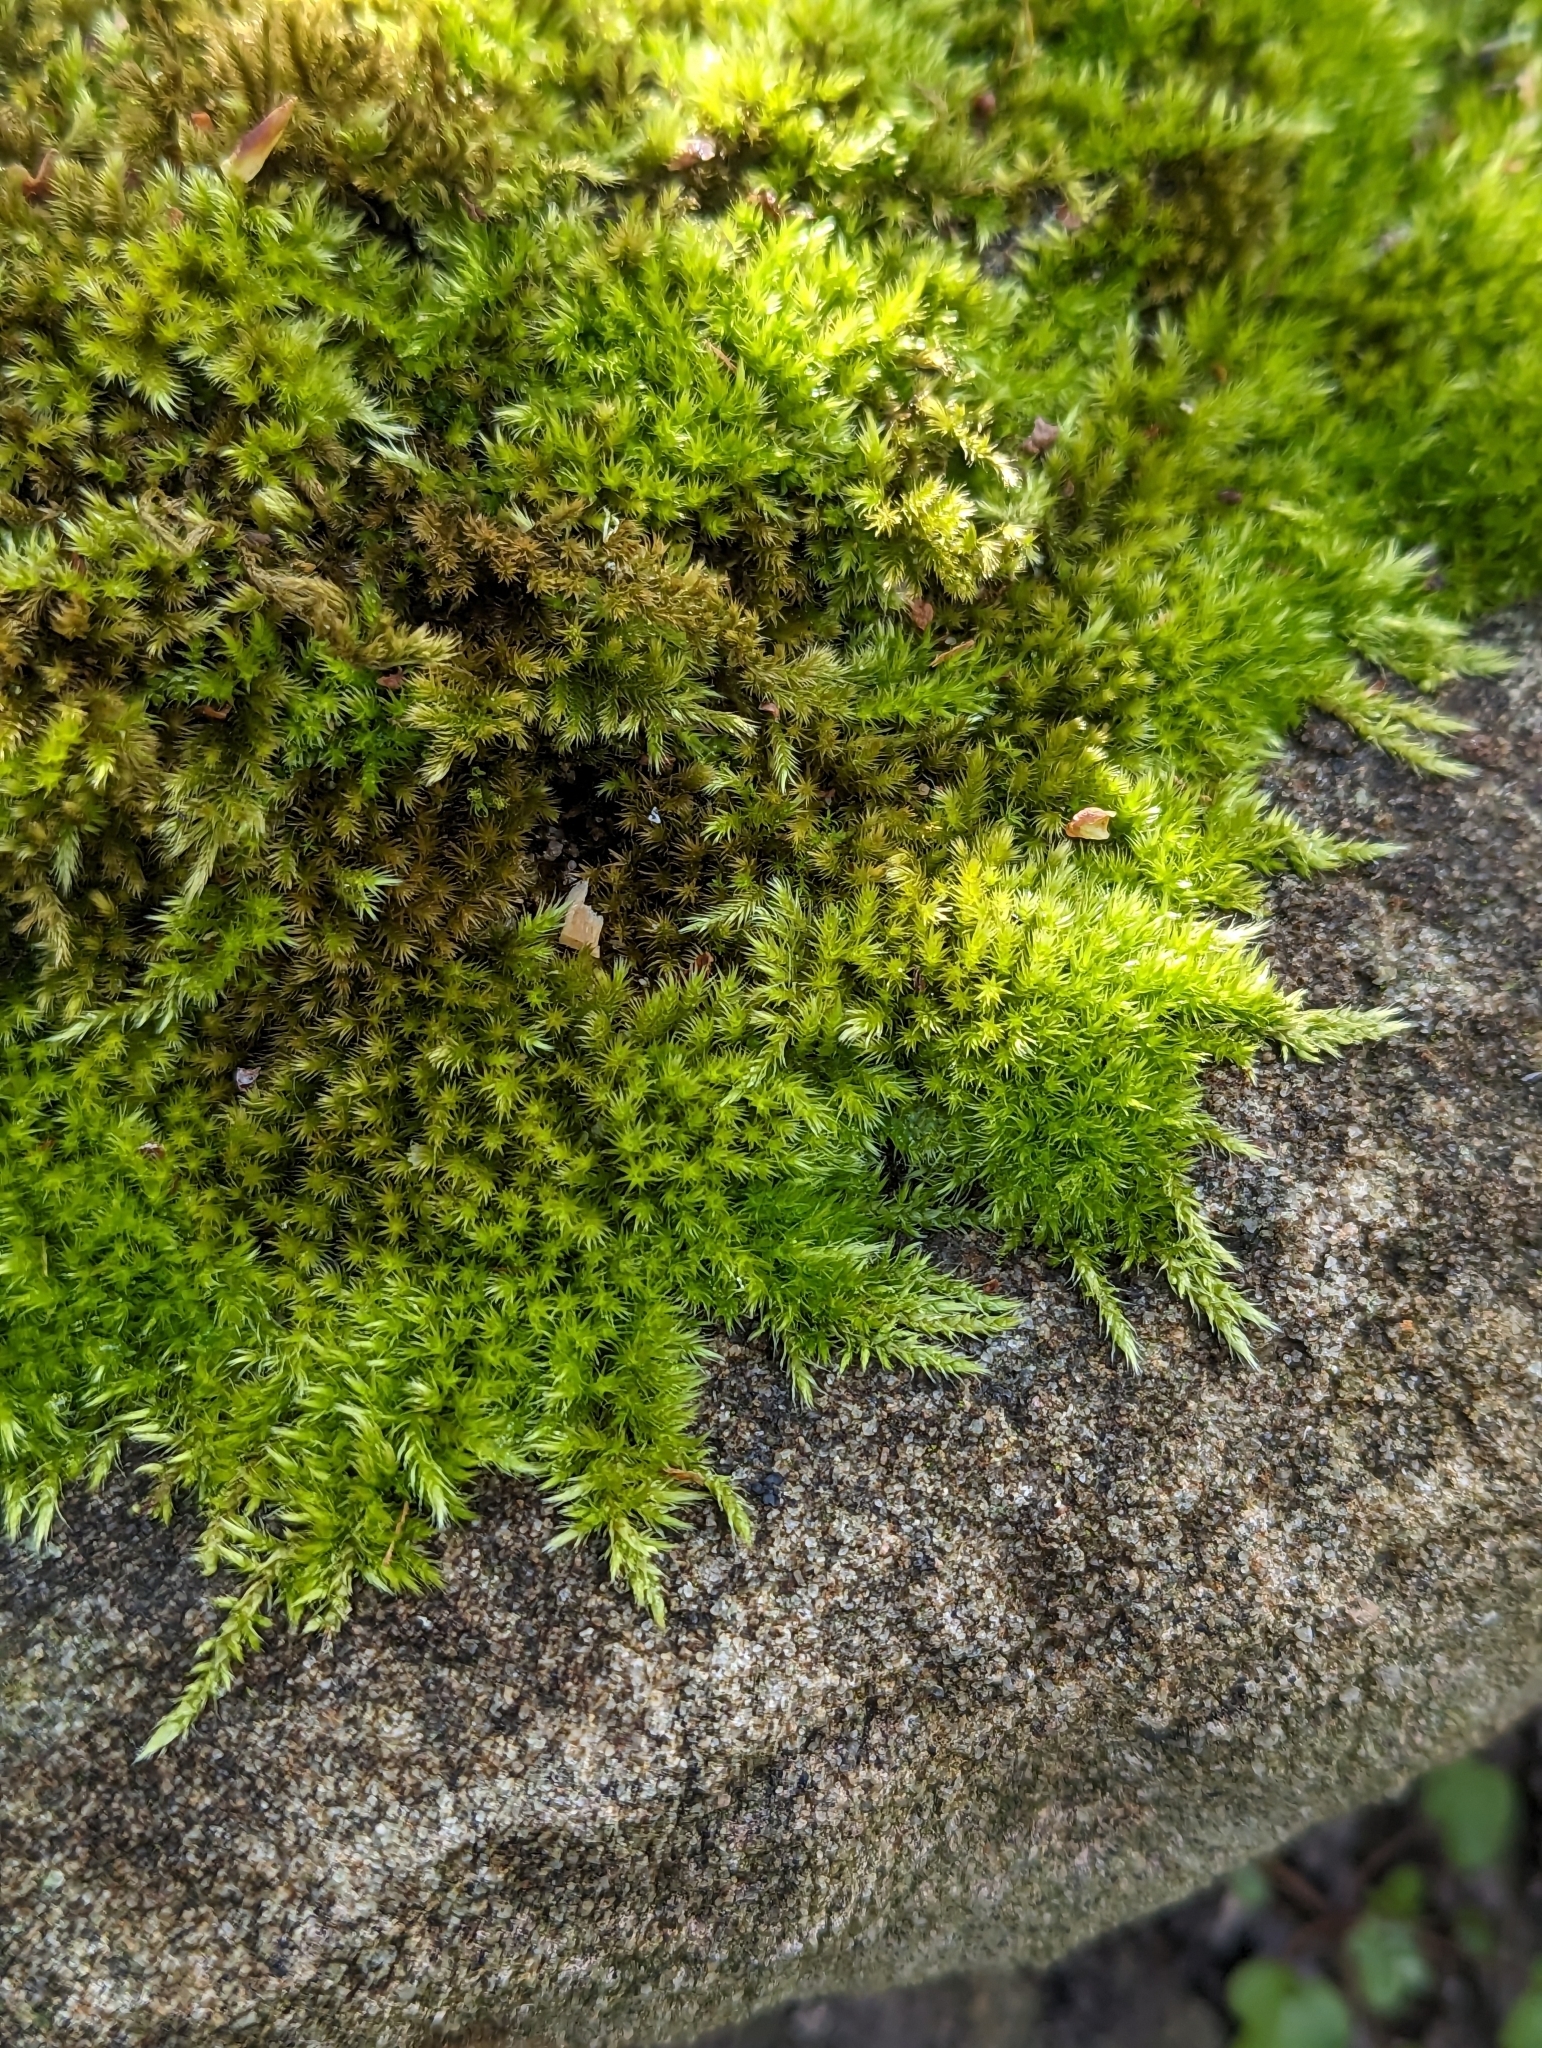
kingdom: Plantae
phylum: Bryophyta
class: Bryopsida
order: Hypnales
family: Brachytheciaceae
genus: Homalothecium
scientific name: Homalothecium sericeum
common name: Silky wall feather-moss
